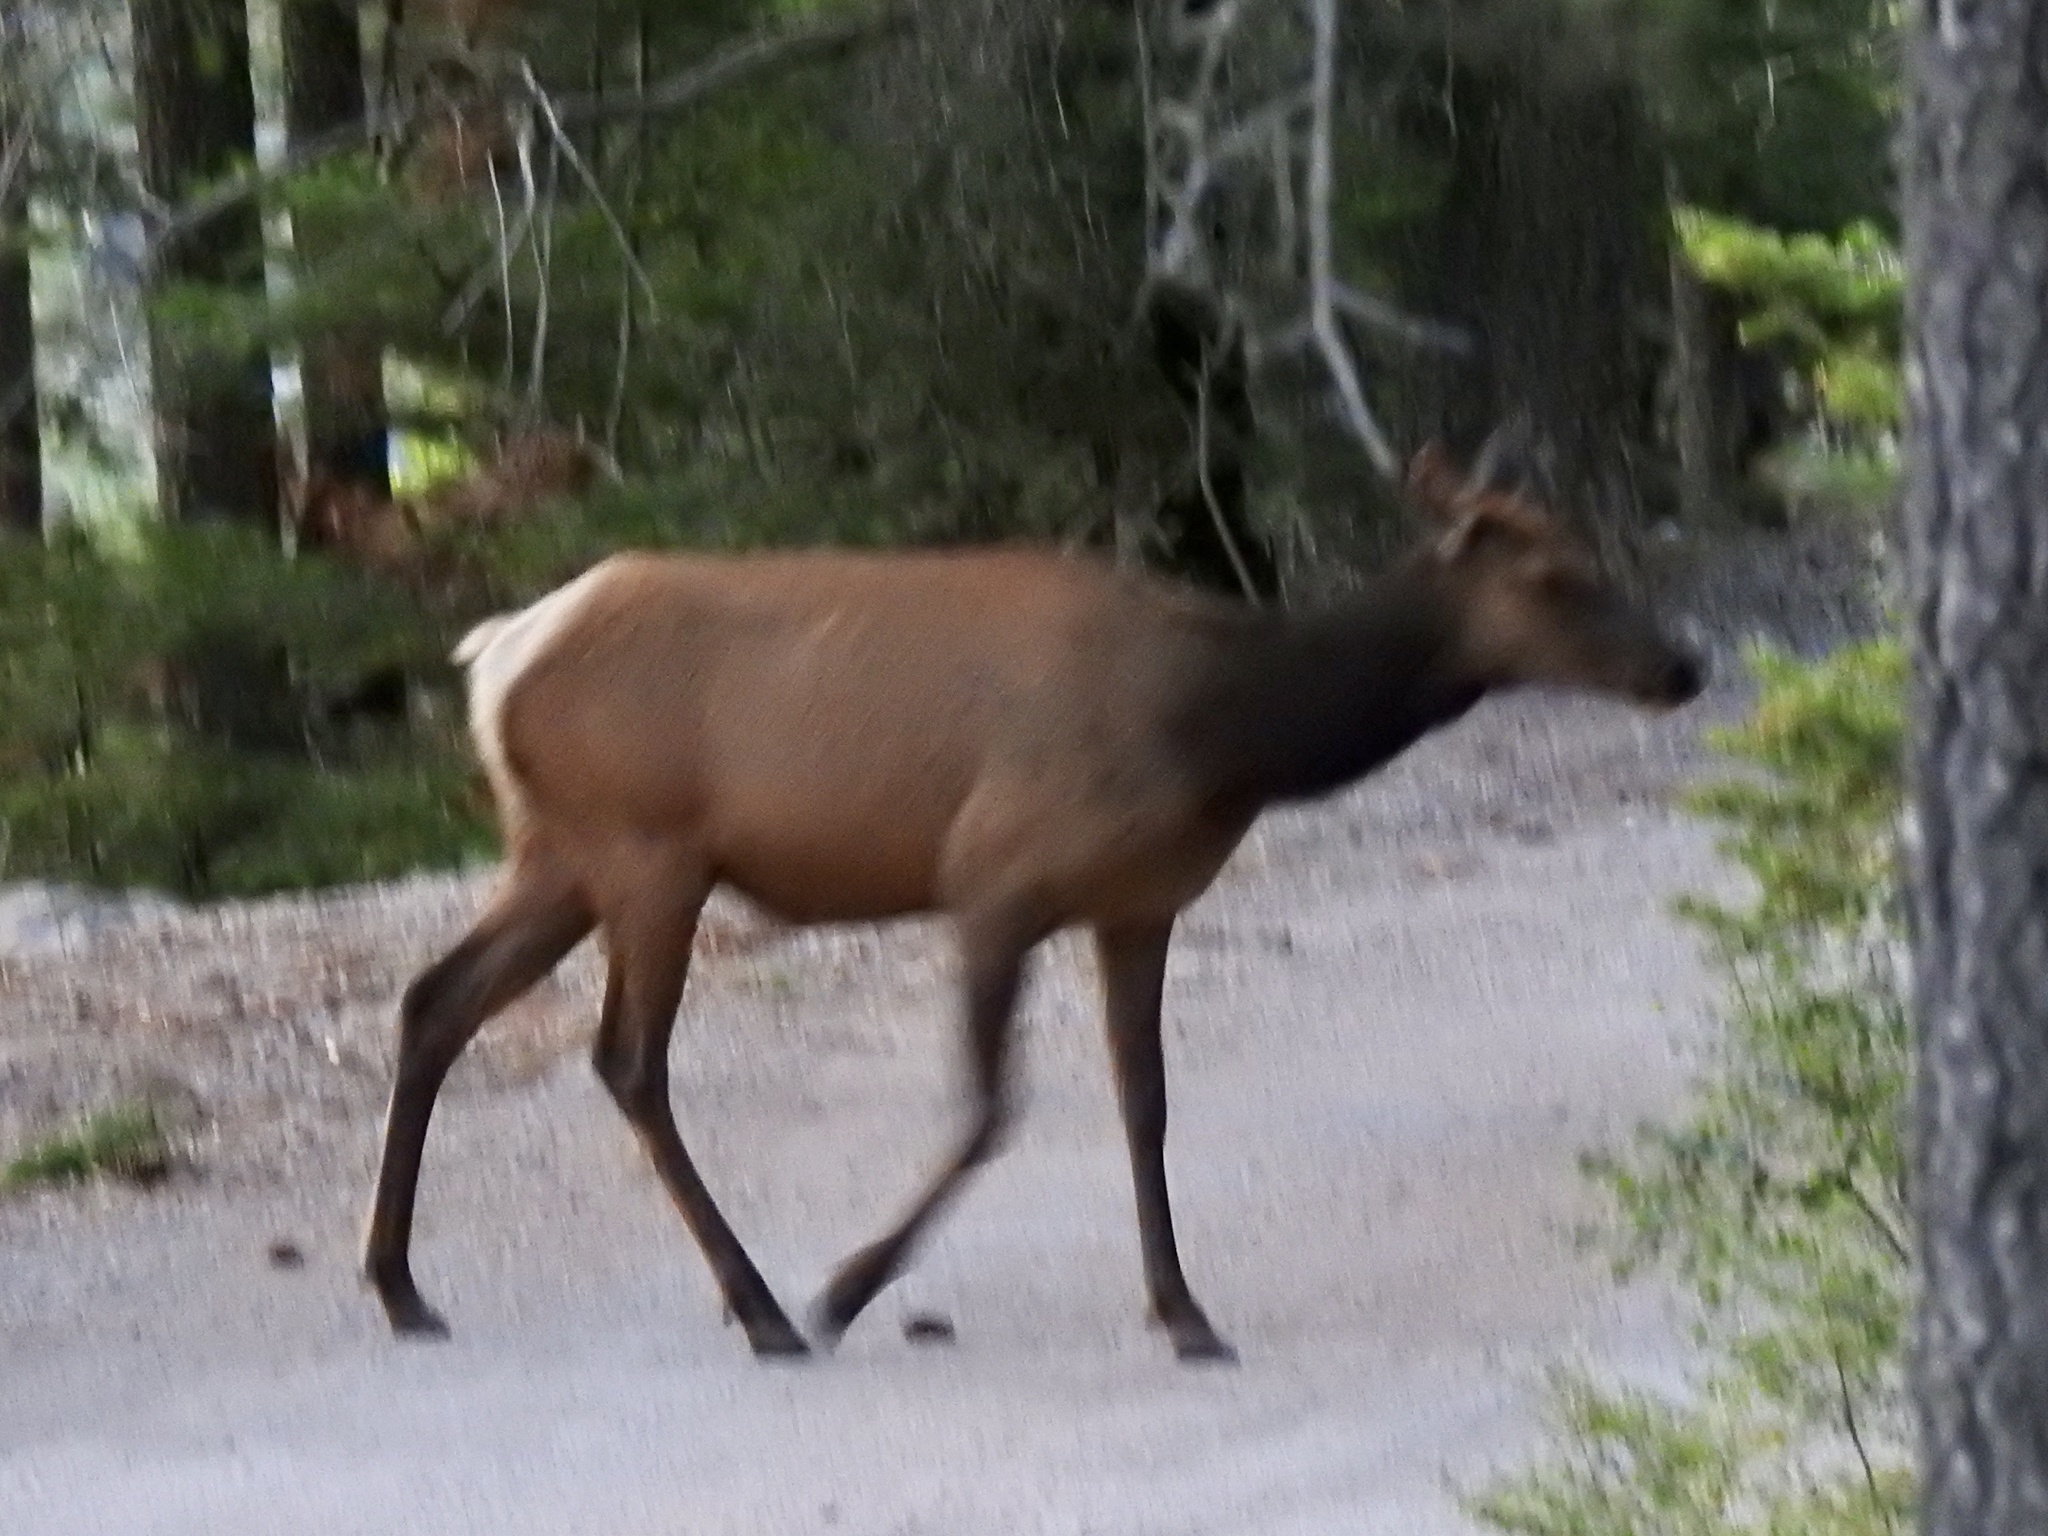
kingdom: Animalia
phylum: Chordata
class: Mammalia
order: Artiodactyla
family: Cervidae
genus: Cervus
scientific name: Cervus elaphus
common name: Red deer
